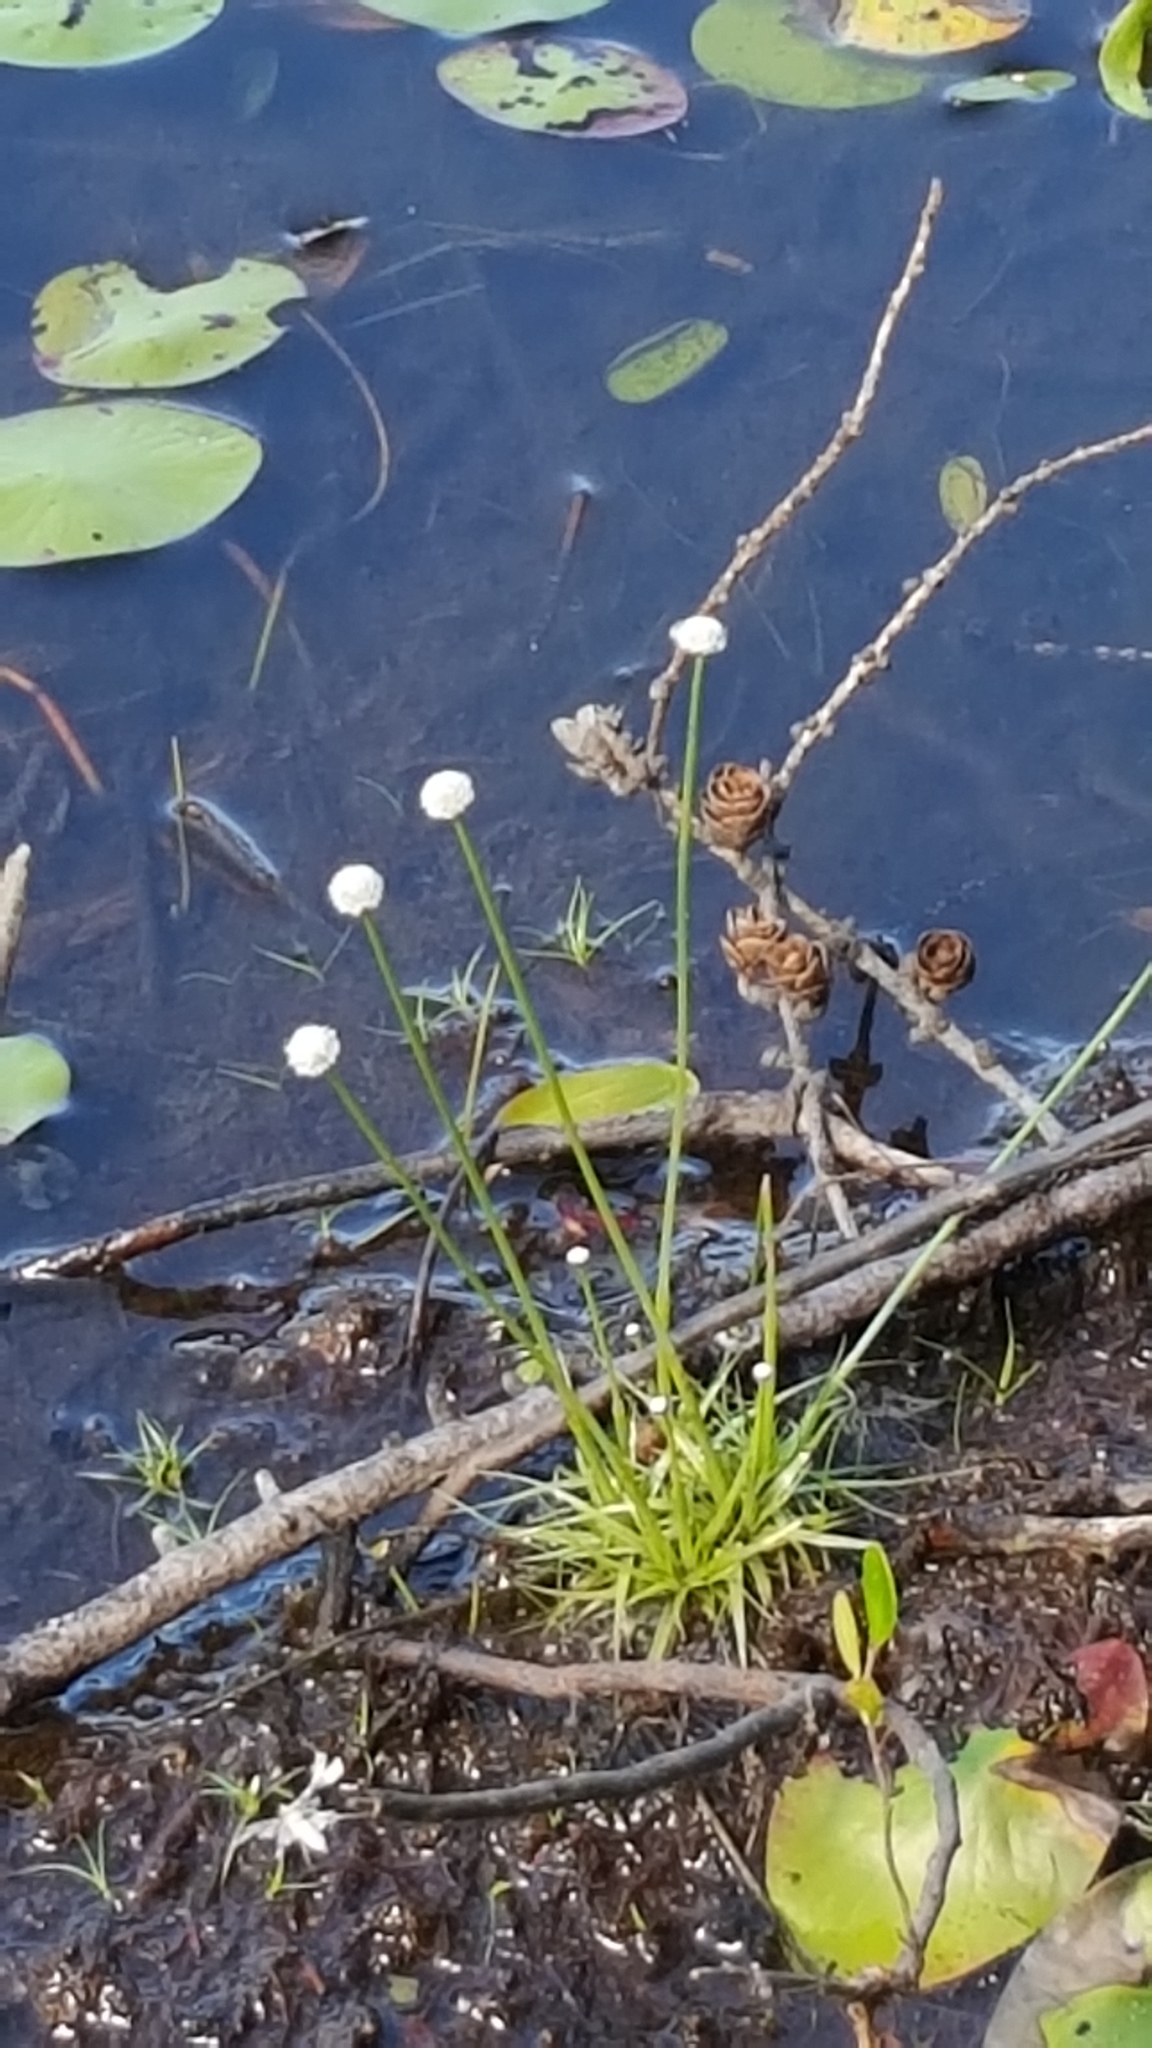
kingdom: Plantae
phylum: Tracheophyta
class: Liliopsida
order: Poales
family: Eriocaulaceae
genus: Eriocaulon
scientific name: Eriocaulon aquaticum
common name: Pipewort
